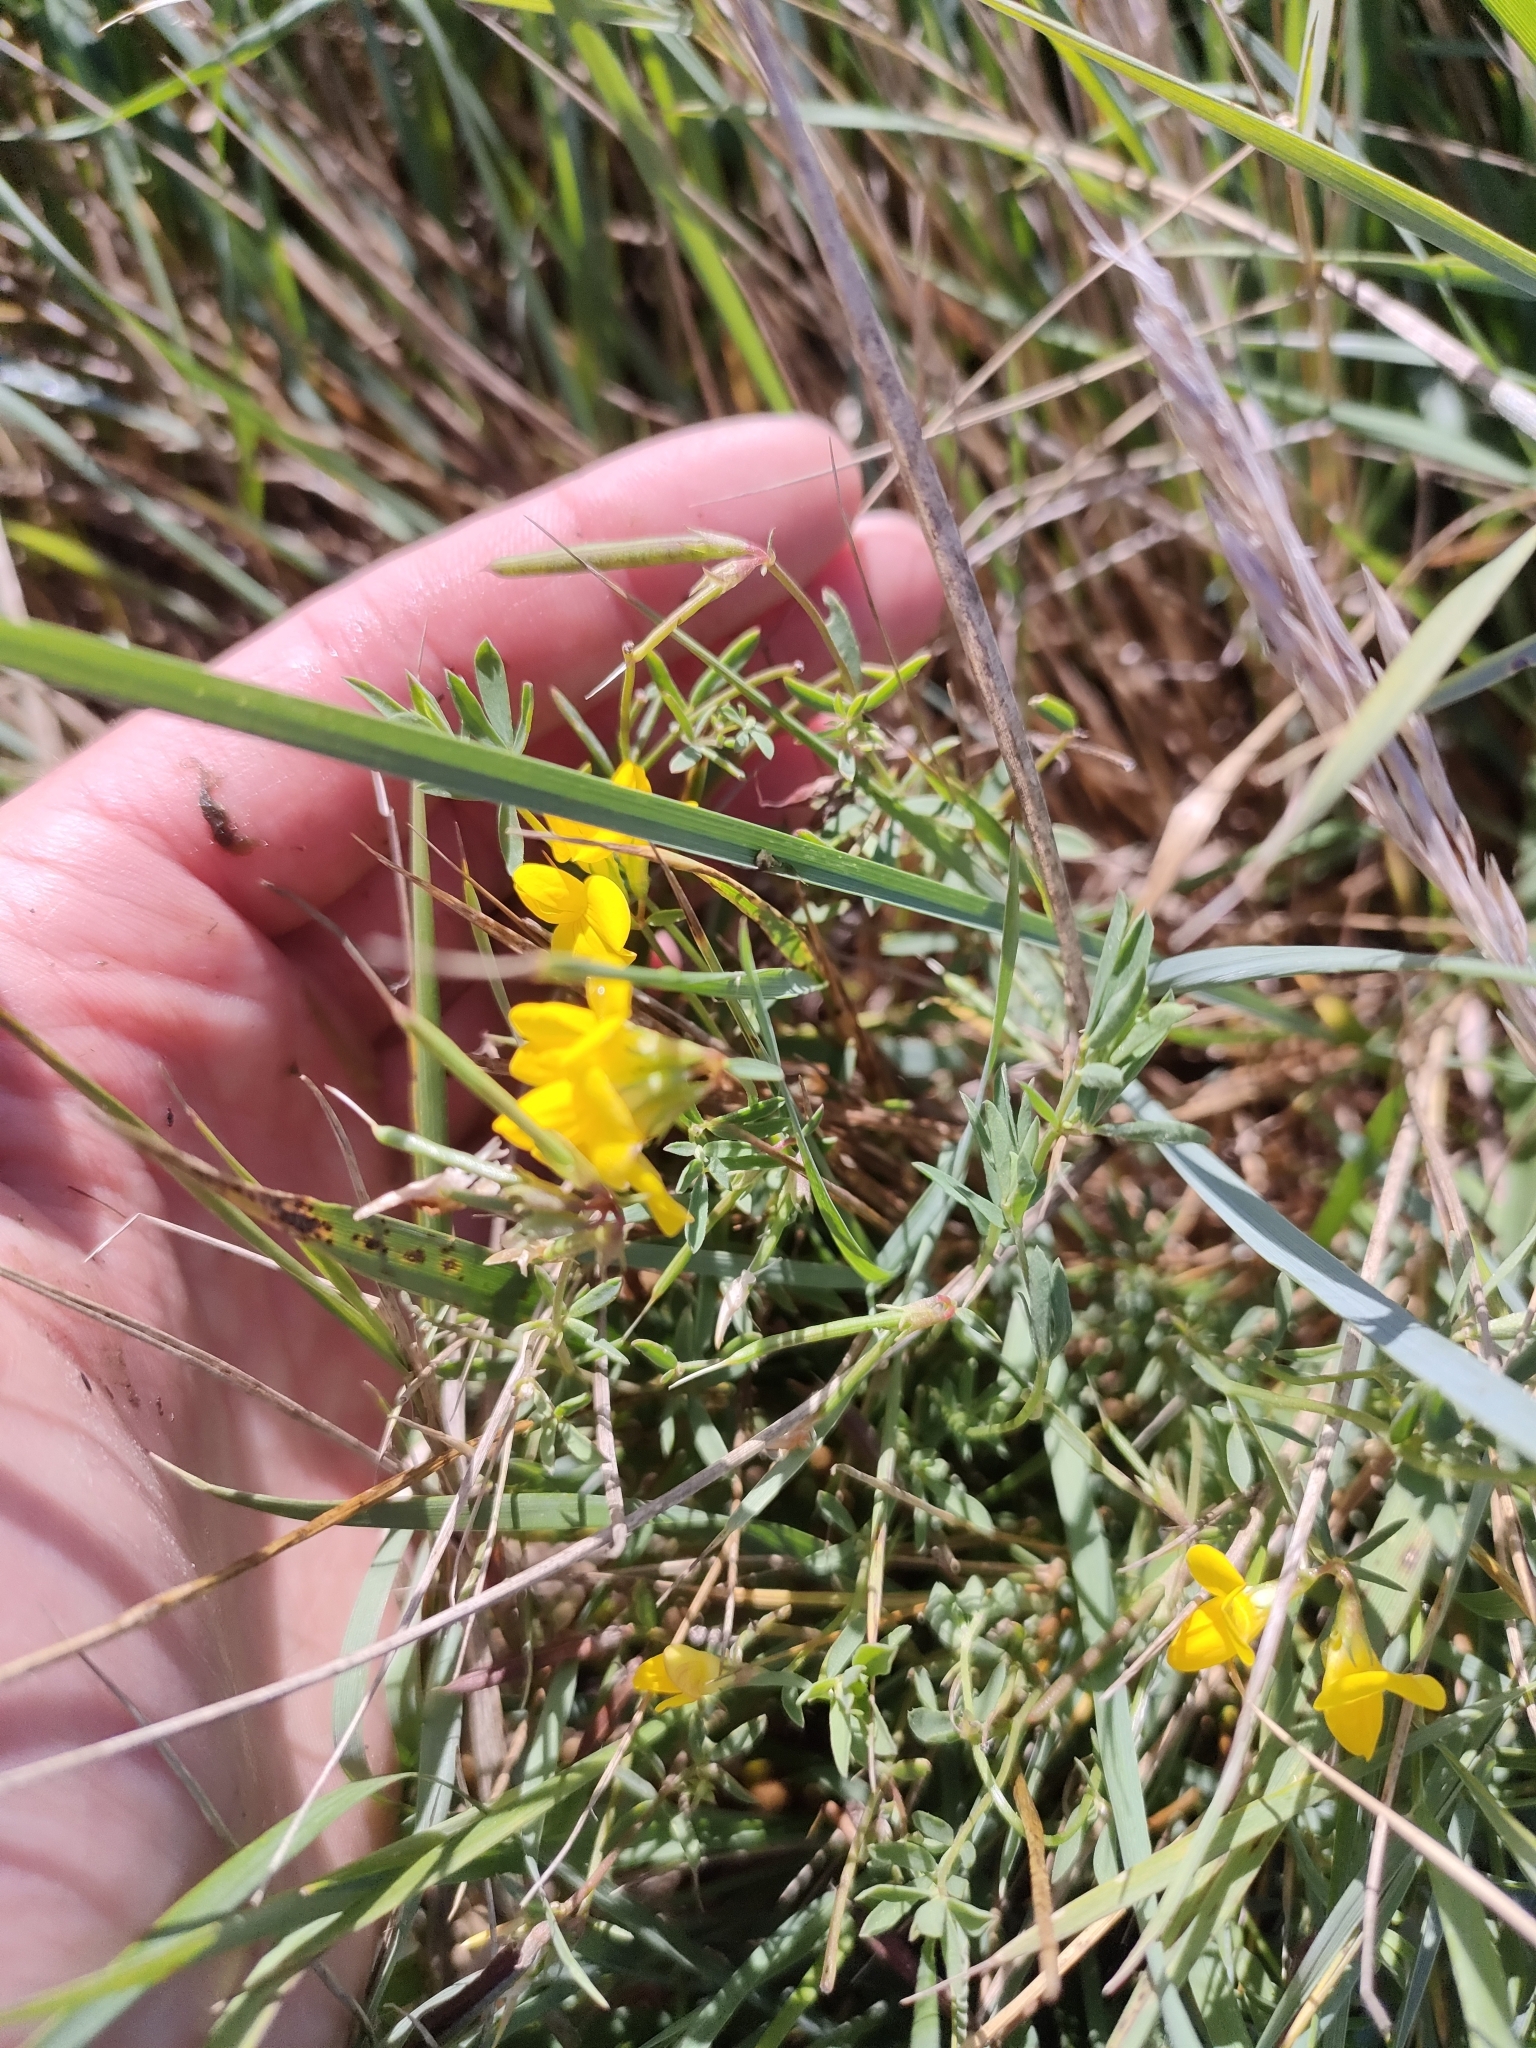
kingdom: Plantae
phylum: Tracheophyta
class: Magnoliopsida
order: Fabales
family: Fabaceae
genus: Lotus
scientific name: Lotus tenuis
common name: Narrow-leaved bird's-foot-trefoil
